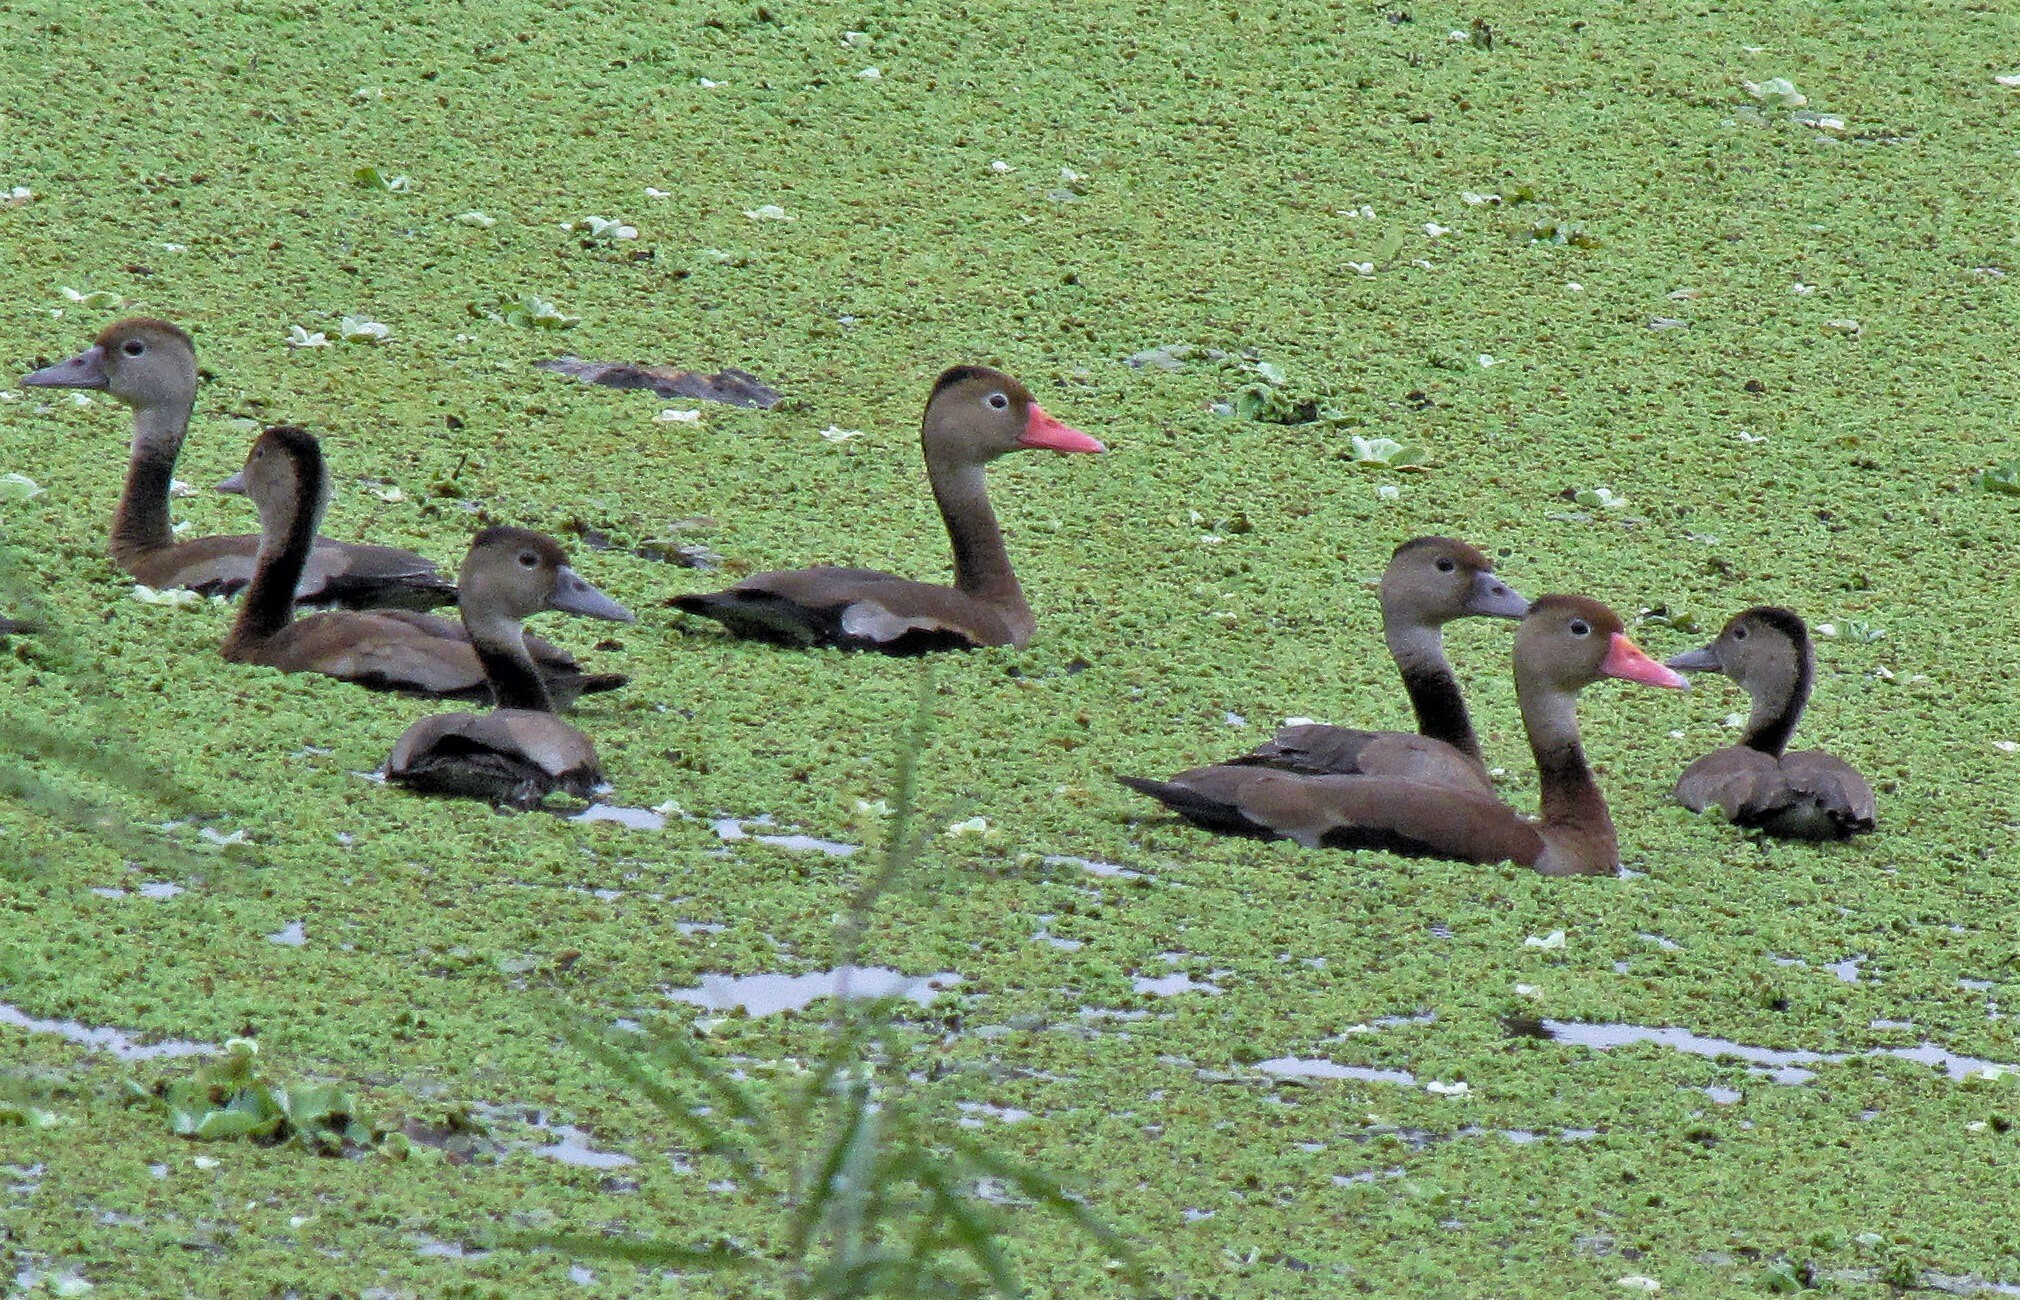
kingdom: Animalia
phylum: Chordata
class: Aves
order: Anseriformes
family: Anatidae
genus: Dendrocygna
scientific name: Dendrocygna autumnalis
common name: Black-bellied whistling duck
